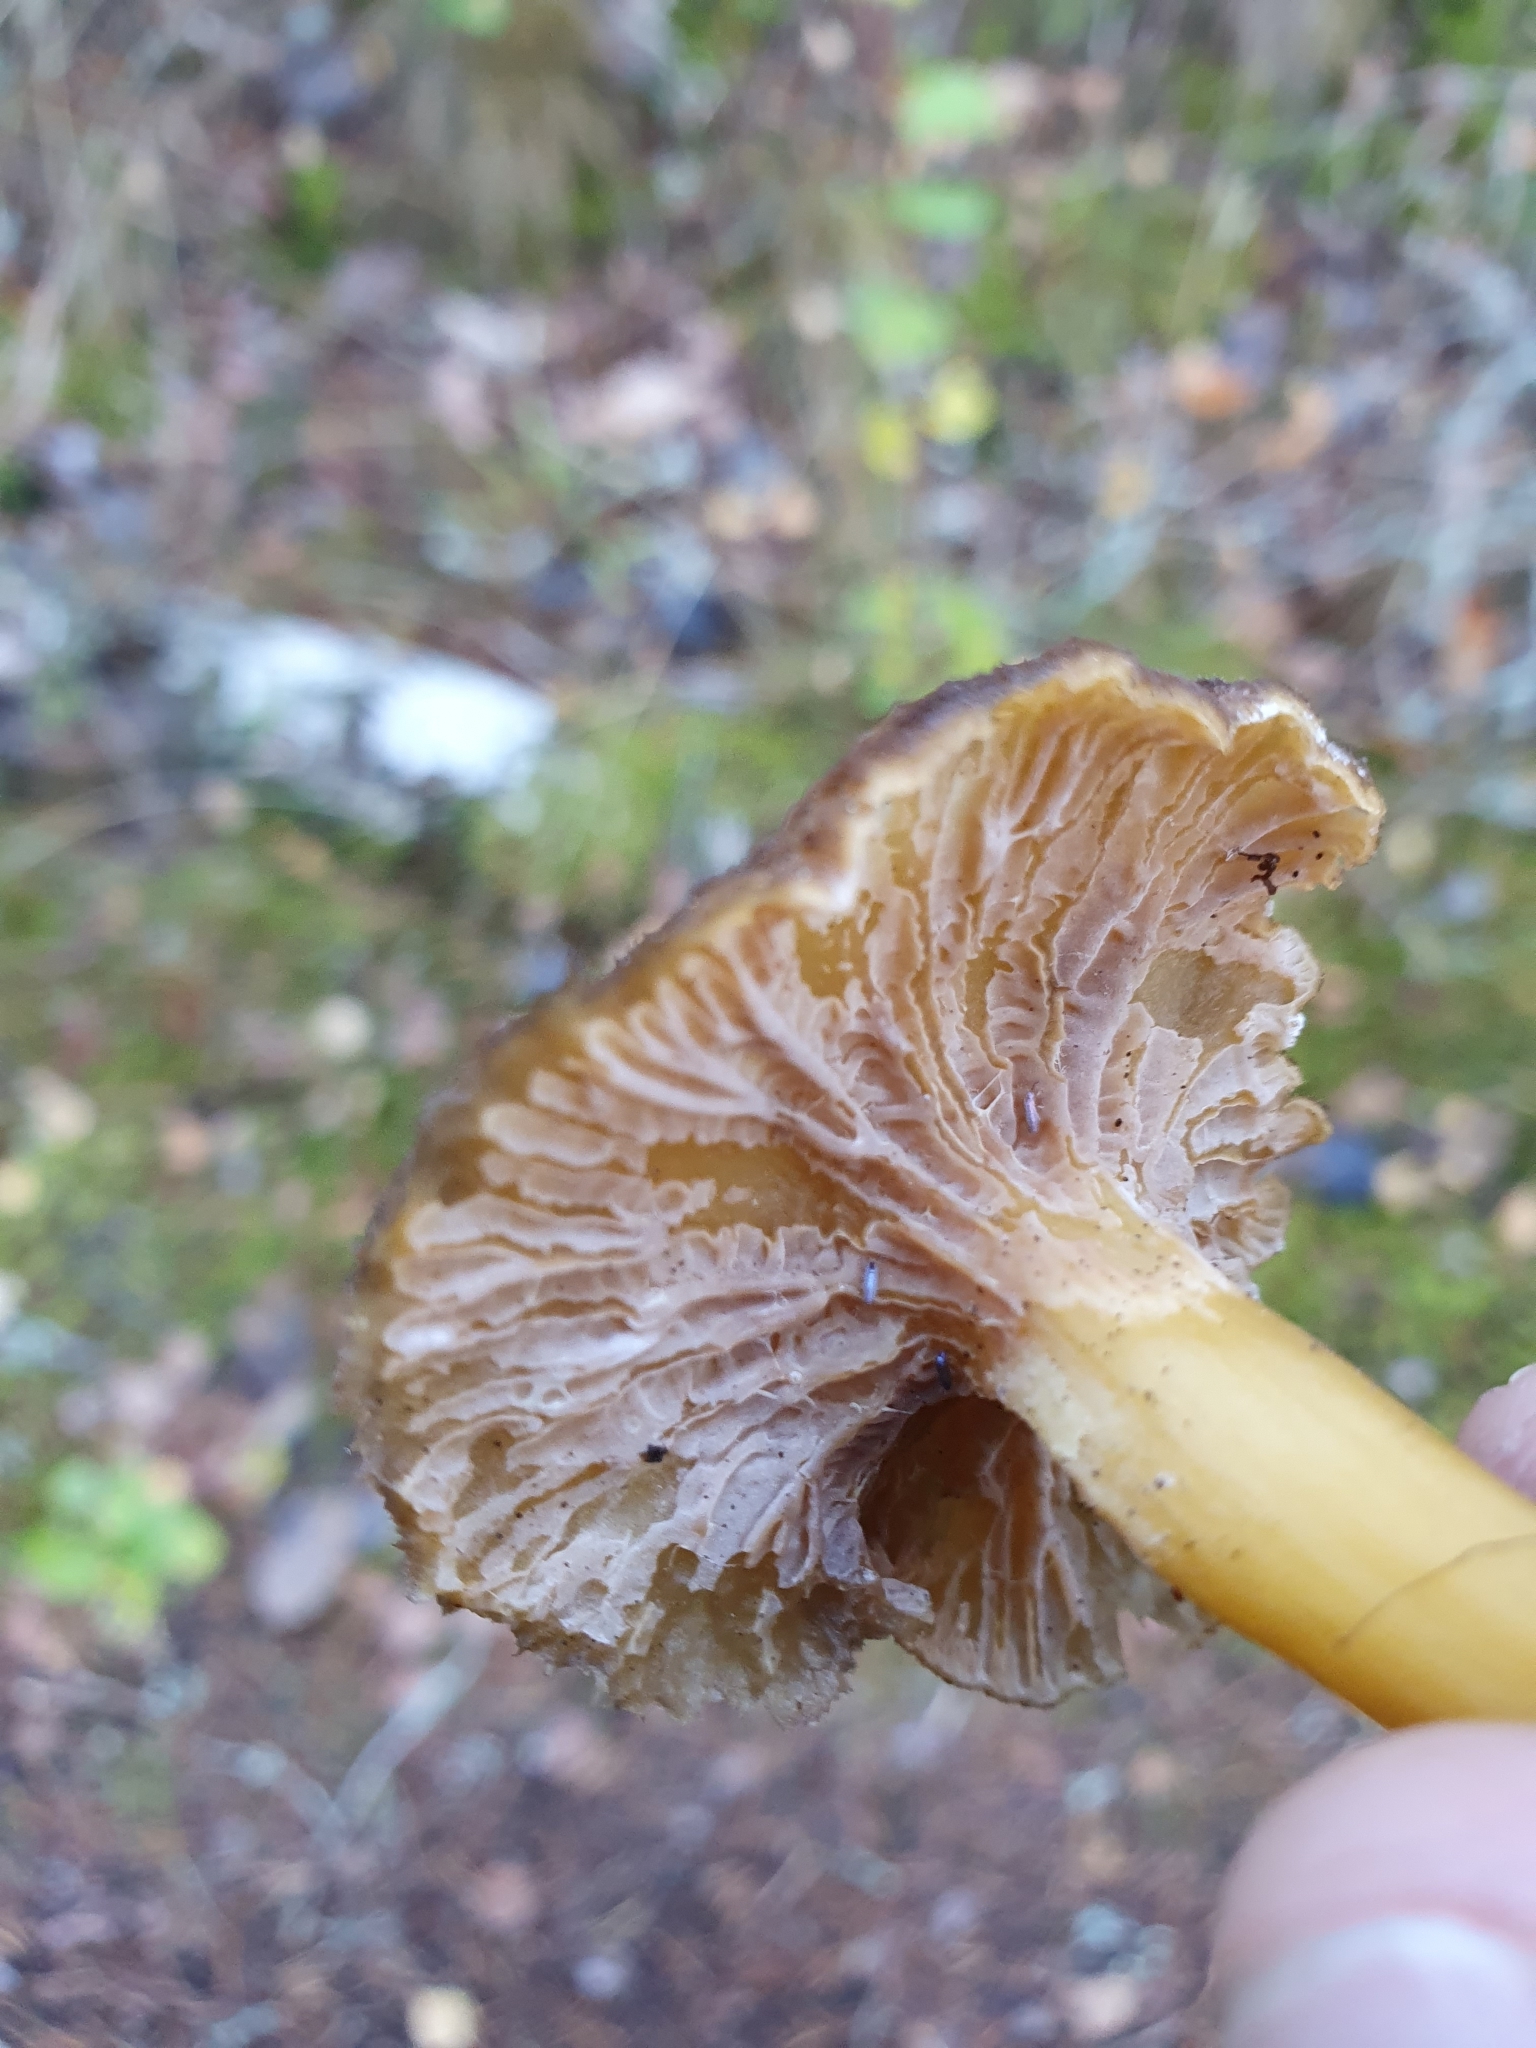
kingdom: Fungi
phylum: Basidiomycota
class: Agaricomycetes
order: Cantharellales
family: Hydnaceae
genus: Craterellus
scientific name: Craterellus tubaeformis
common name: Yellowfoot
